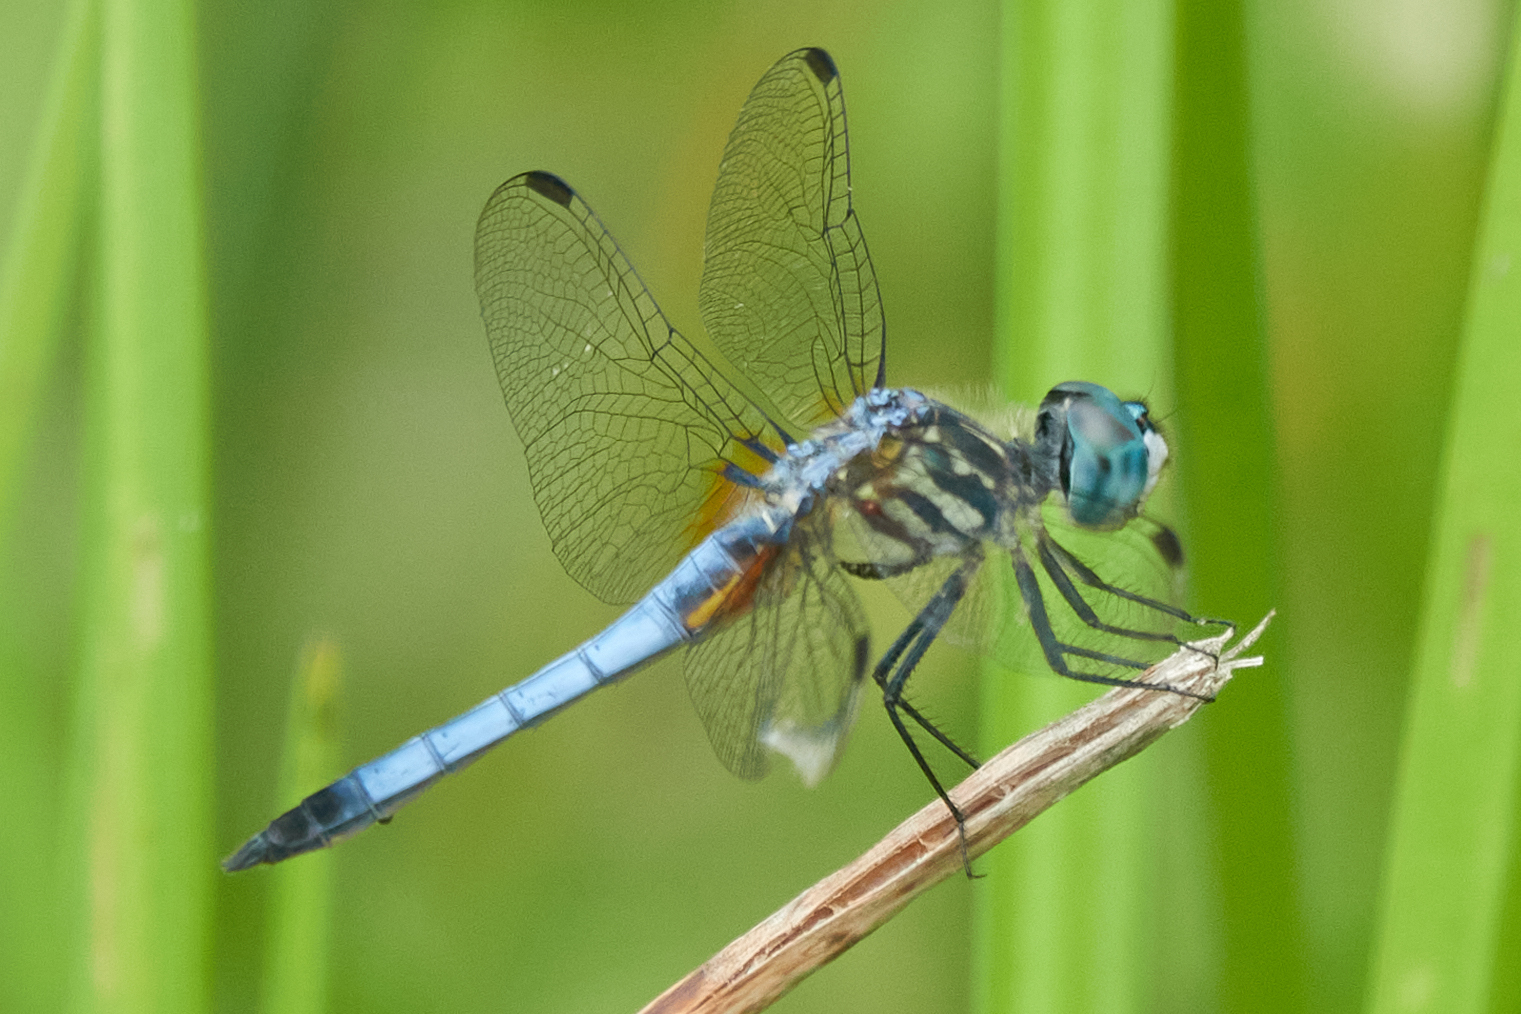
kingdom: Animalia
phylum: Arthropoda
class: Insecta
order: Odonata
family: Libellulidae
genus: Pachydiplax
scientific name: Pachydiplax longipennis
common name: Blue dasher
